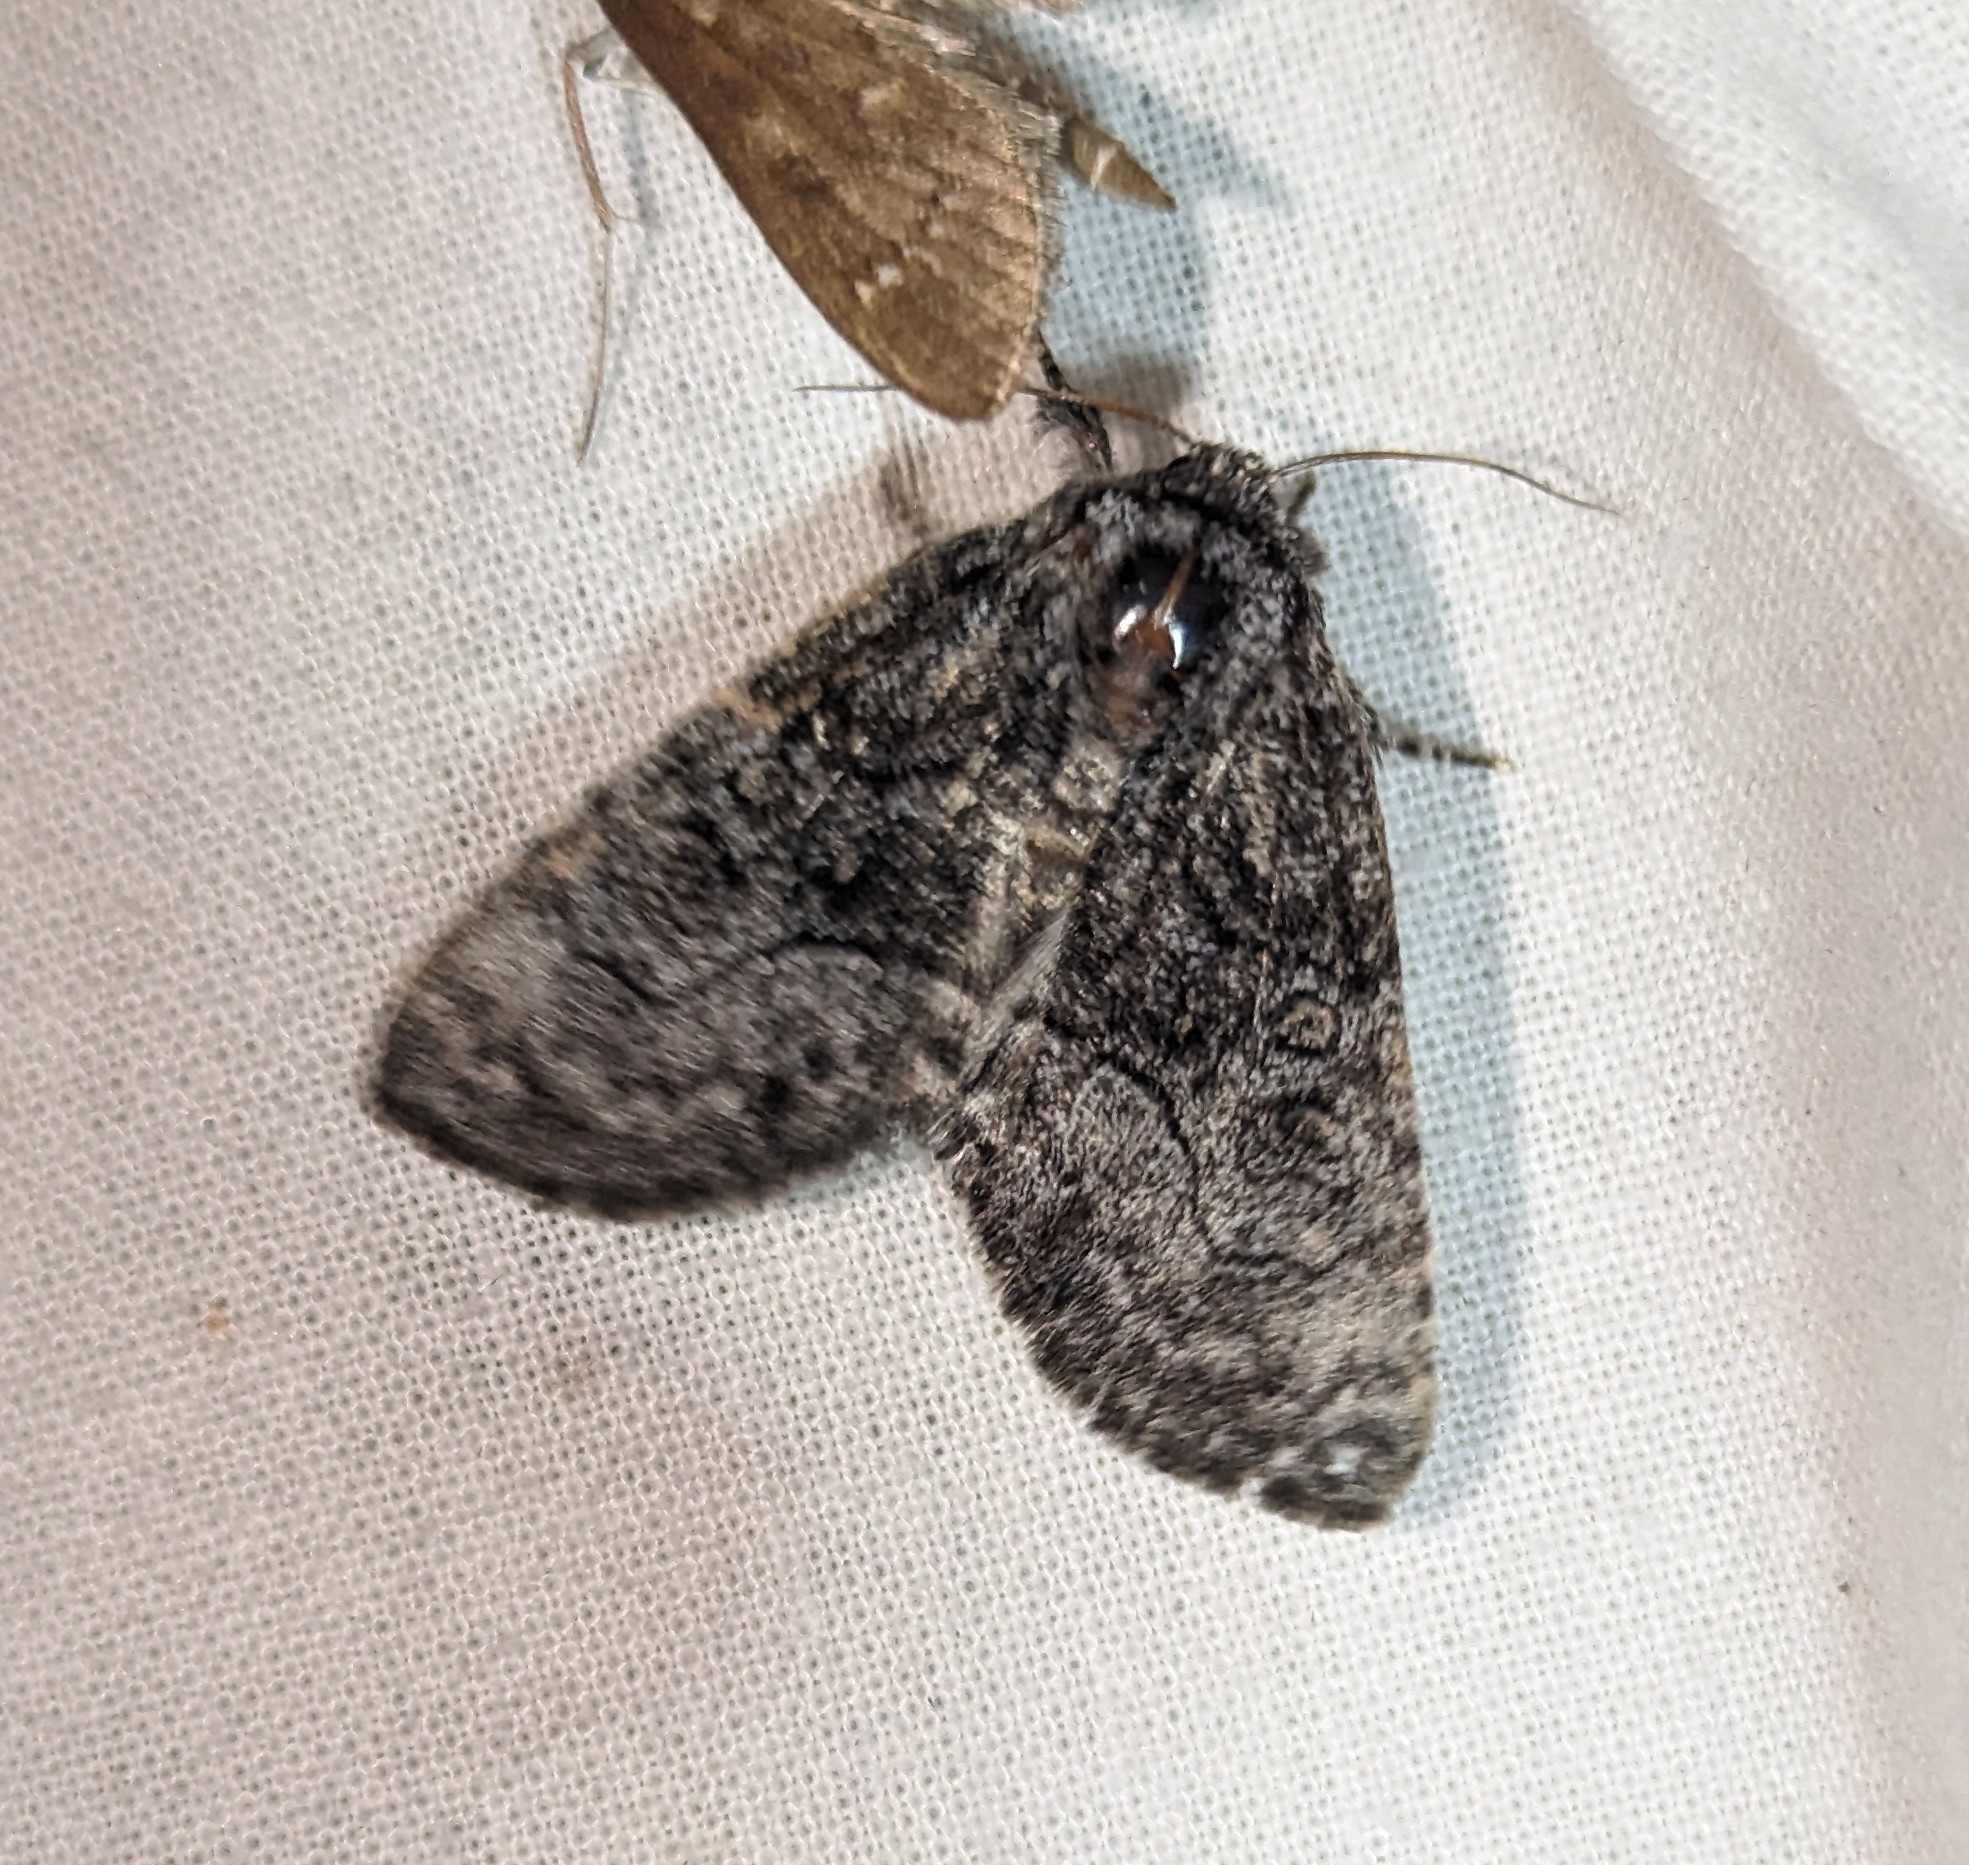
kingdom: Animalia
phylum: Arthropoda
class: Insecta
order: Lepidoptera
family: Noctuidae
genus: Raphia
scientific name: Raphia frater
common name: Brother
